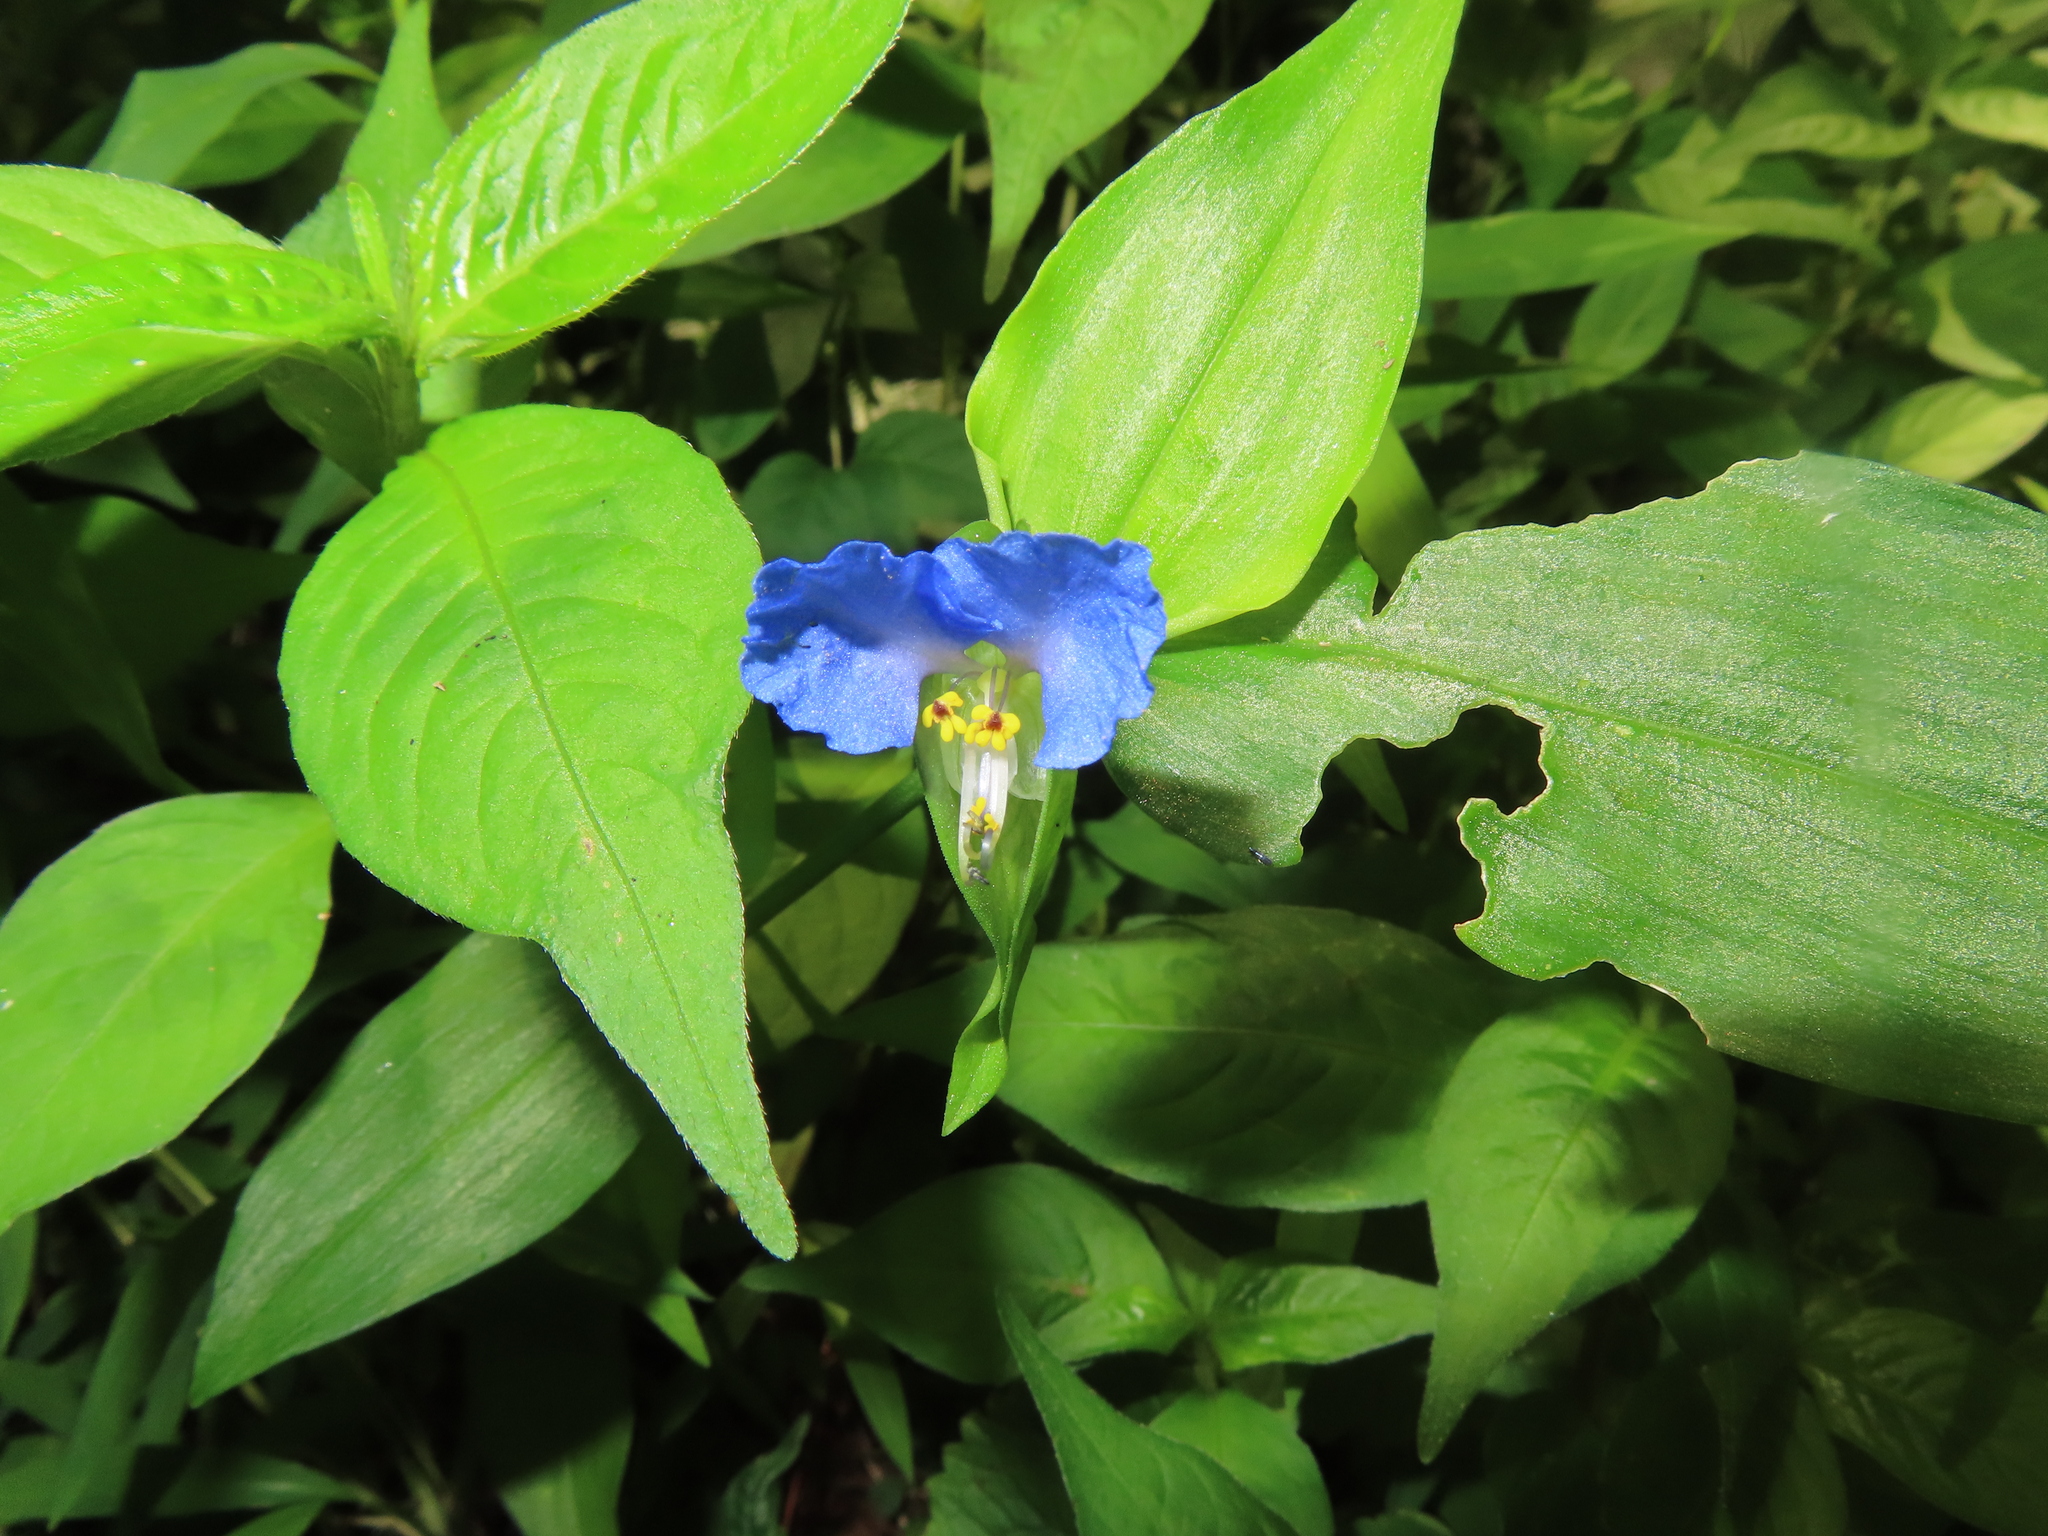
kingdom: Plantae
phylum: Tracheophyta
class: Liliopsida
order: Commelinales
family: Commelinaceae
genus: Commelina
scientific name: Commelina communis
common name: Asiatic dayflower
